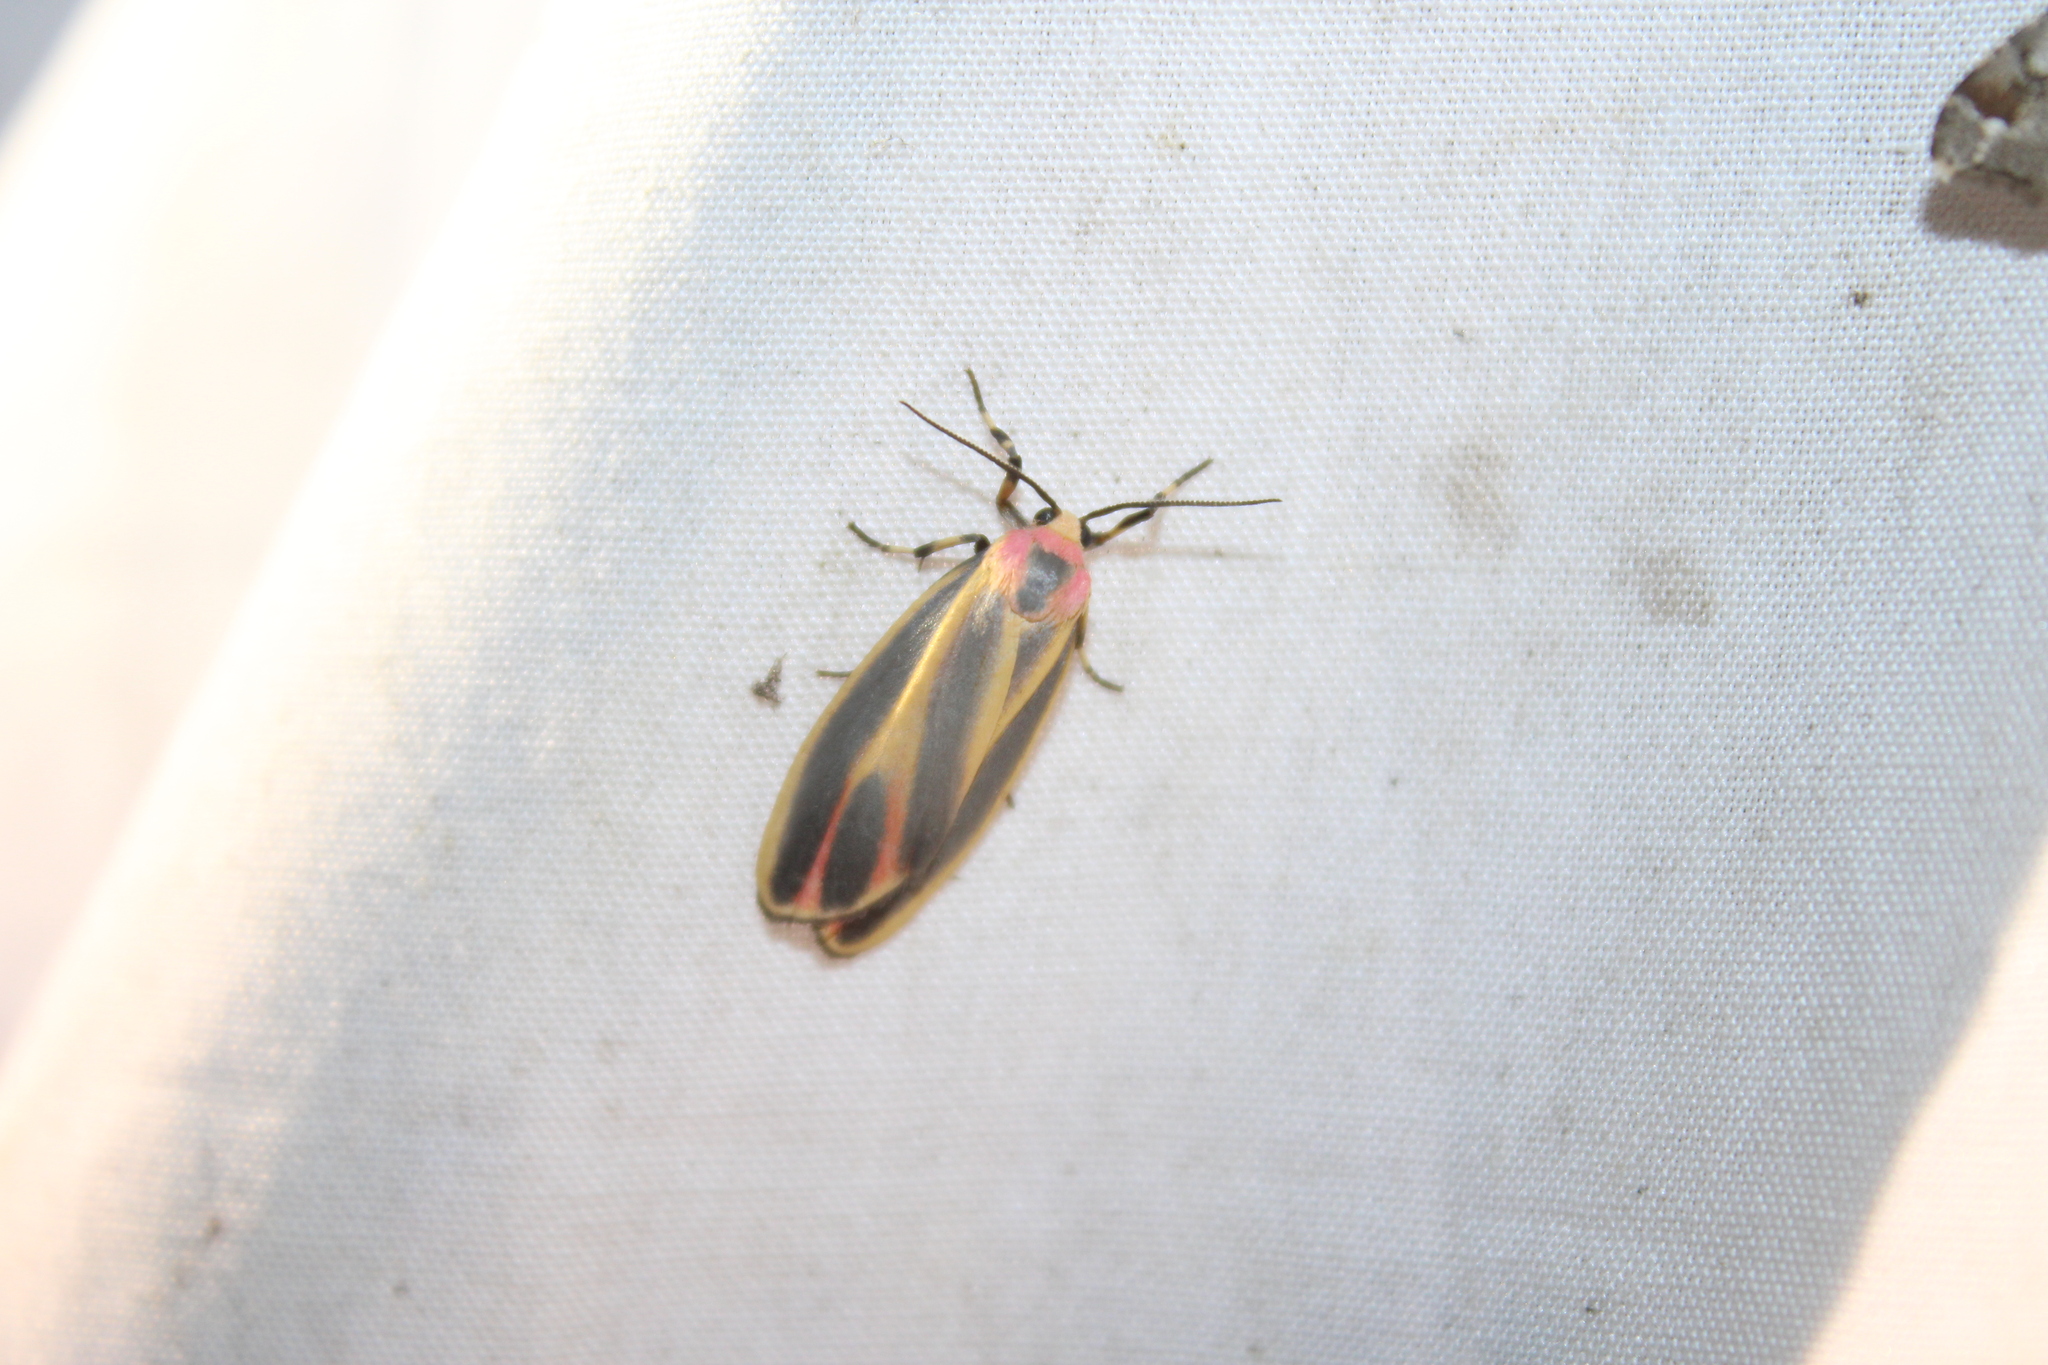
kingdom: Animalia
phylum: Arthropoda
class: Insecta
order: Lepidoptera
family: Erebidae
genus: Hypoprepia
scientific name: Hypoprepia fucosa
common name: Painted lichen moth
